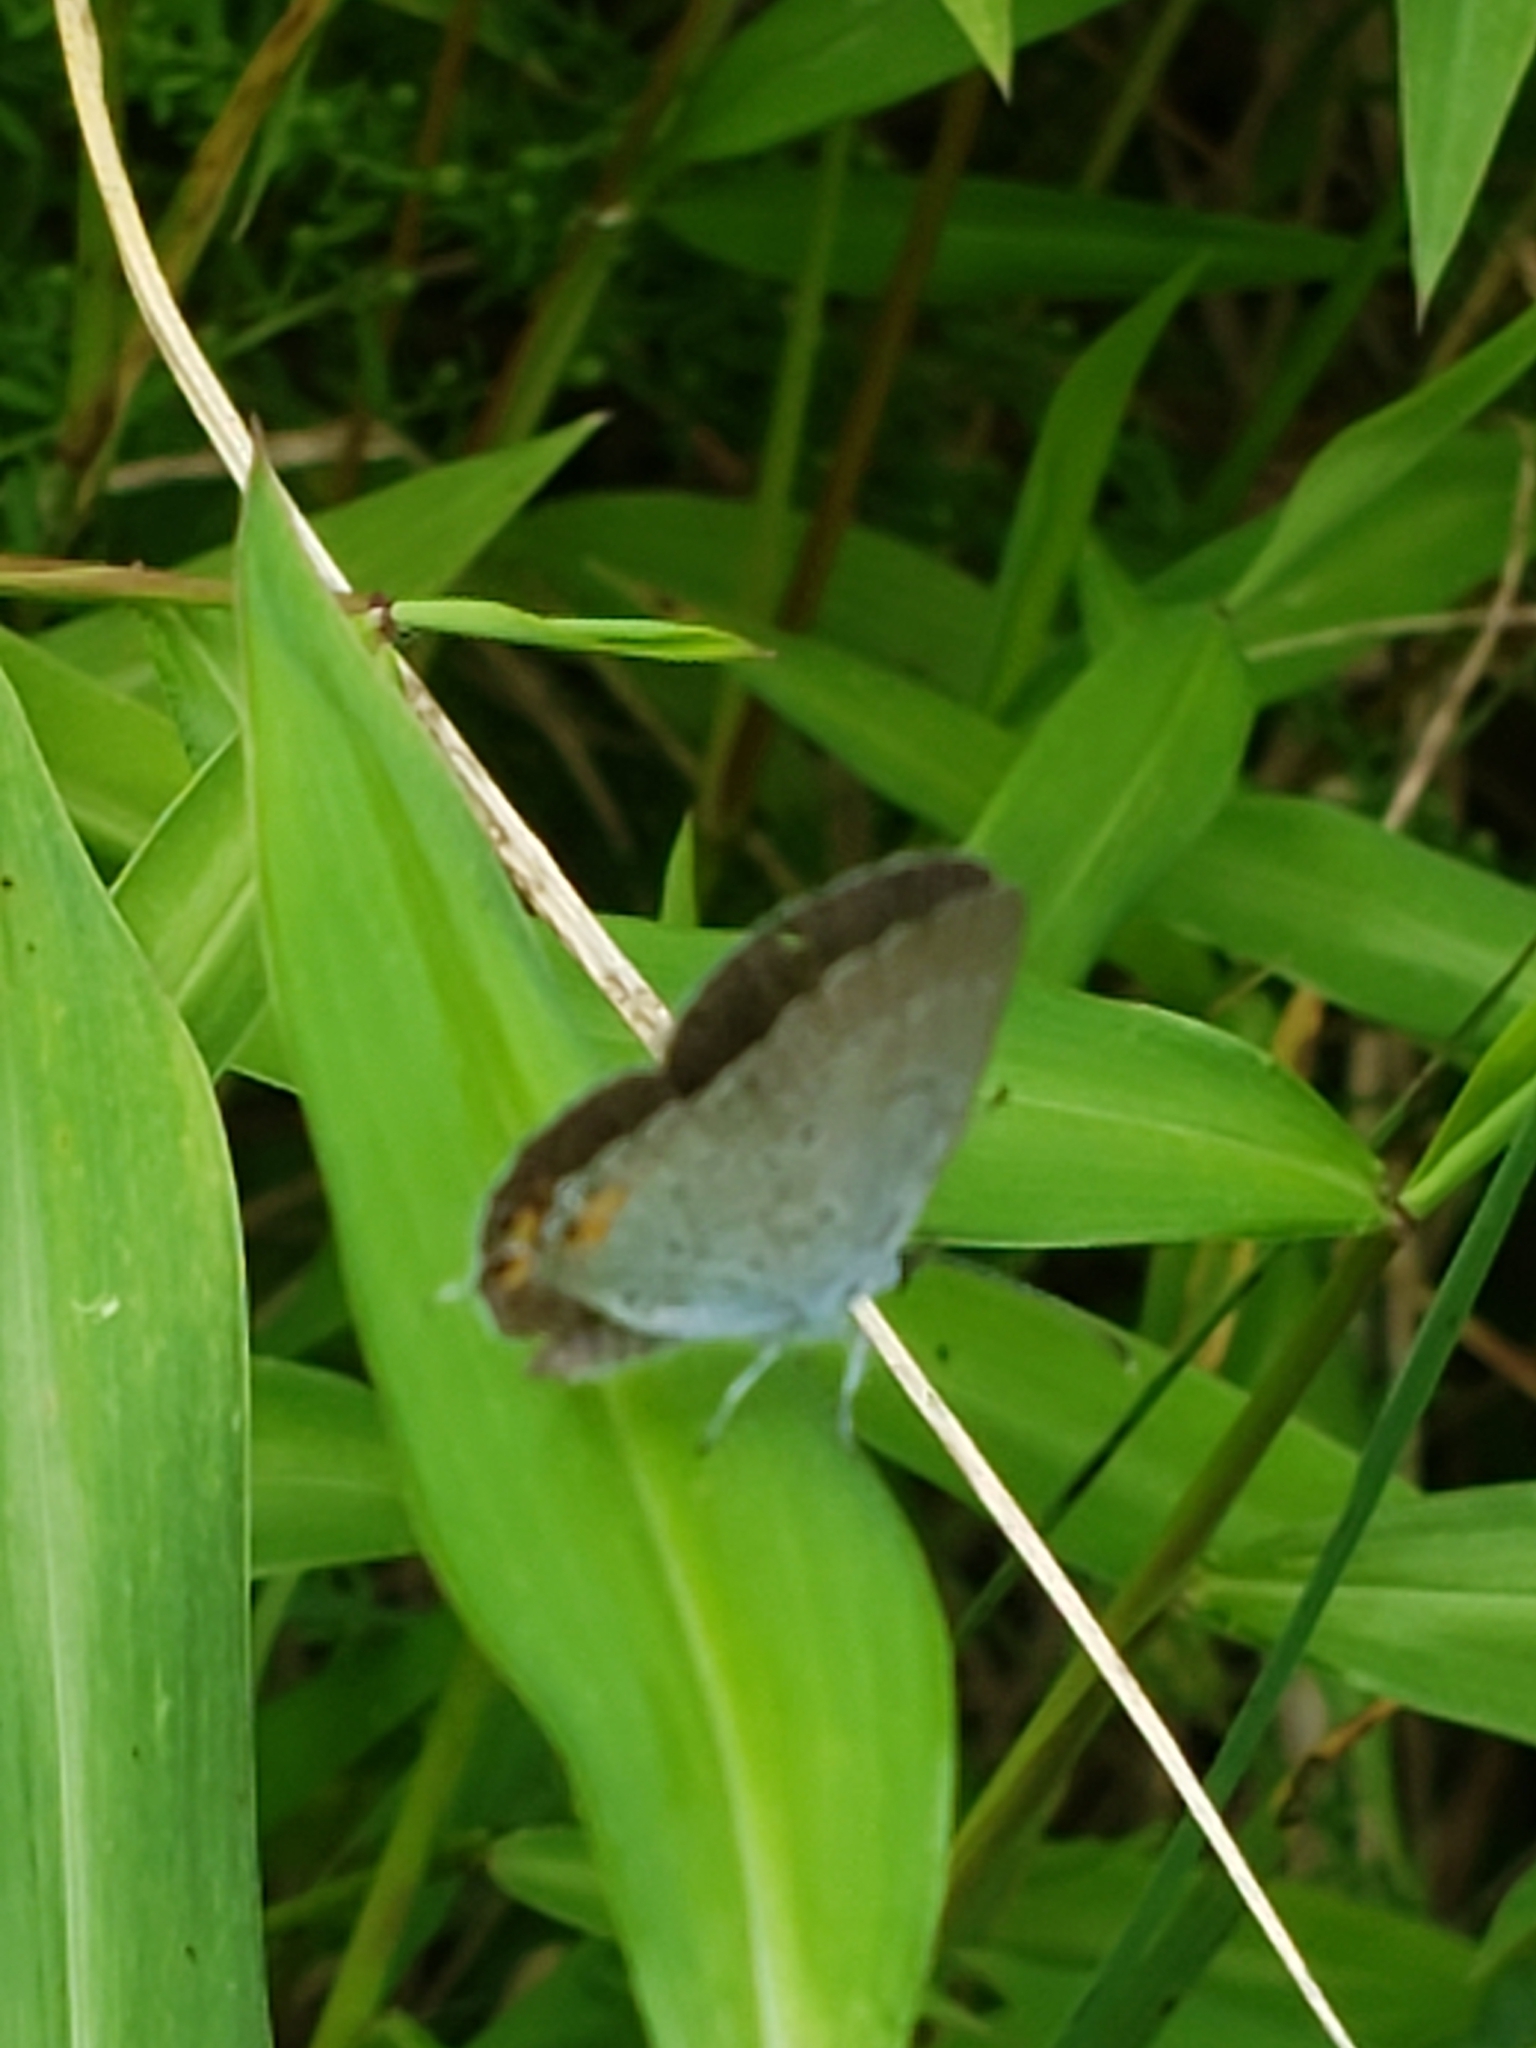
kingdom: Animalia
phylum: Arthropoda
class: Insecta
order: Lepidoptera
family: Lycaenidae
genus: Elkalyce
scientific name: Elkalyce comyntas
